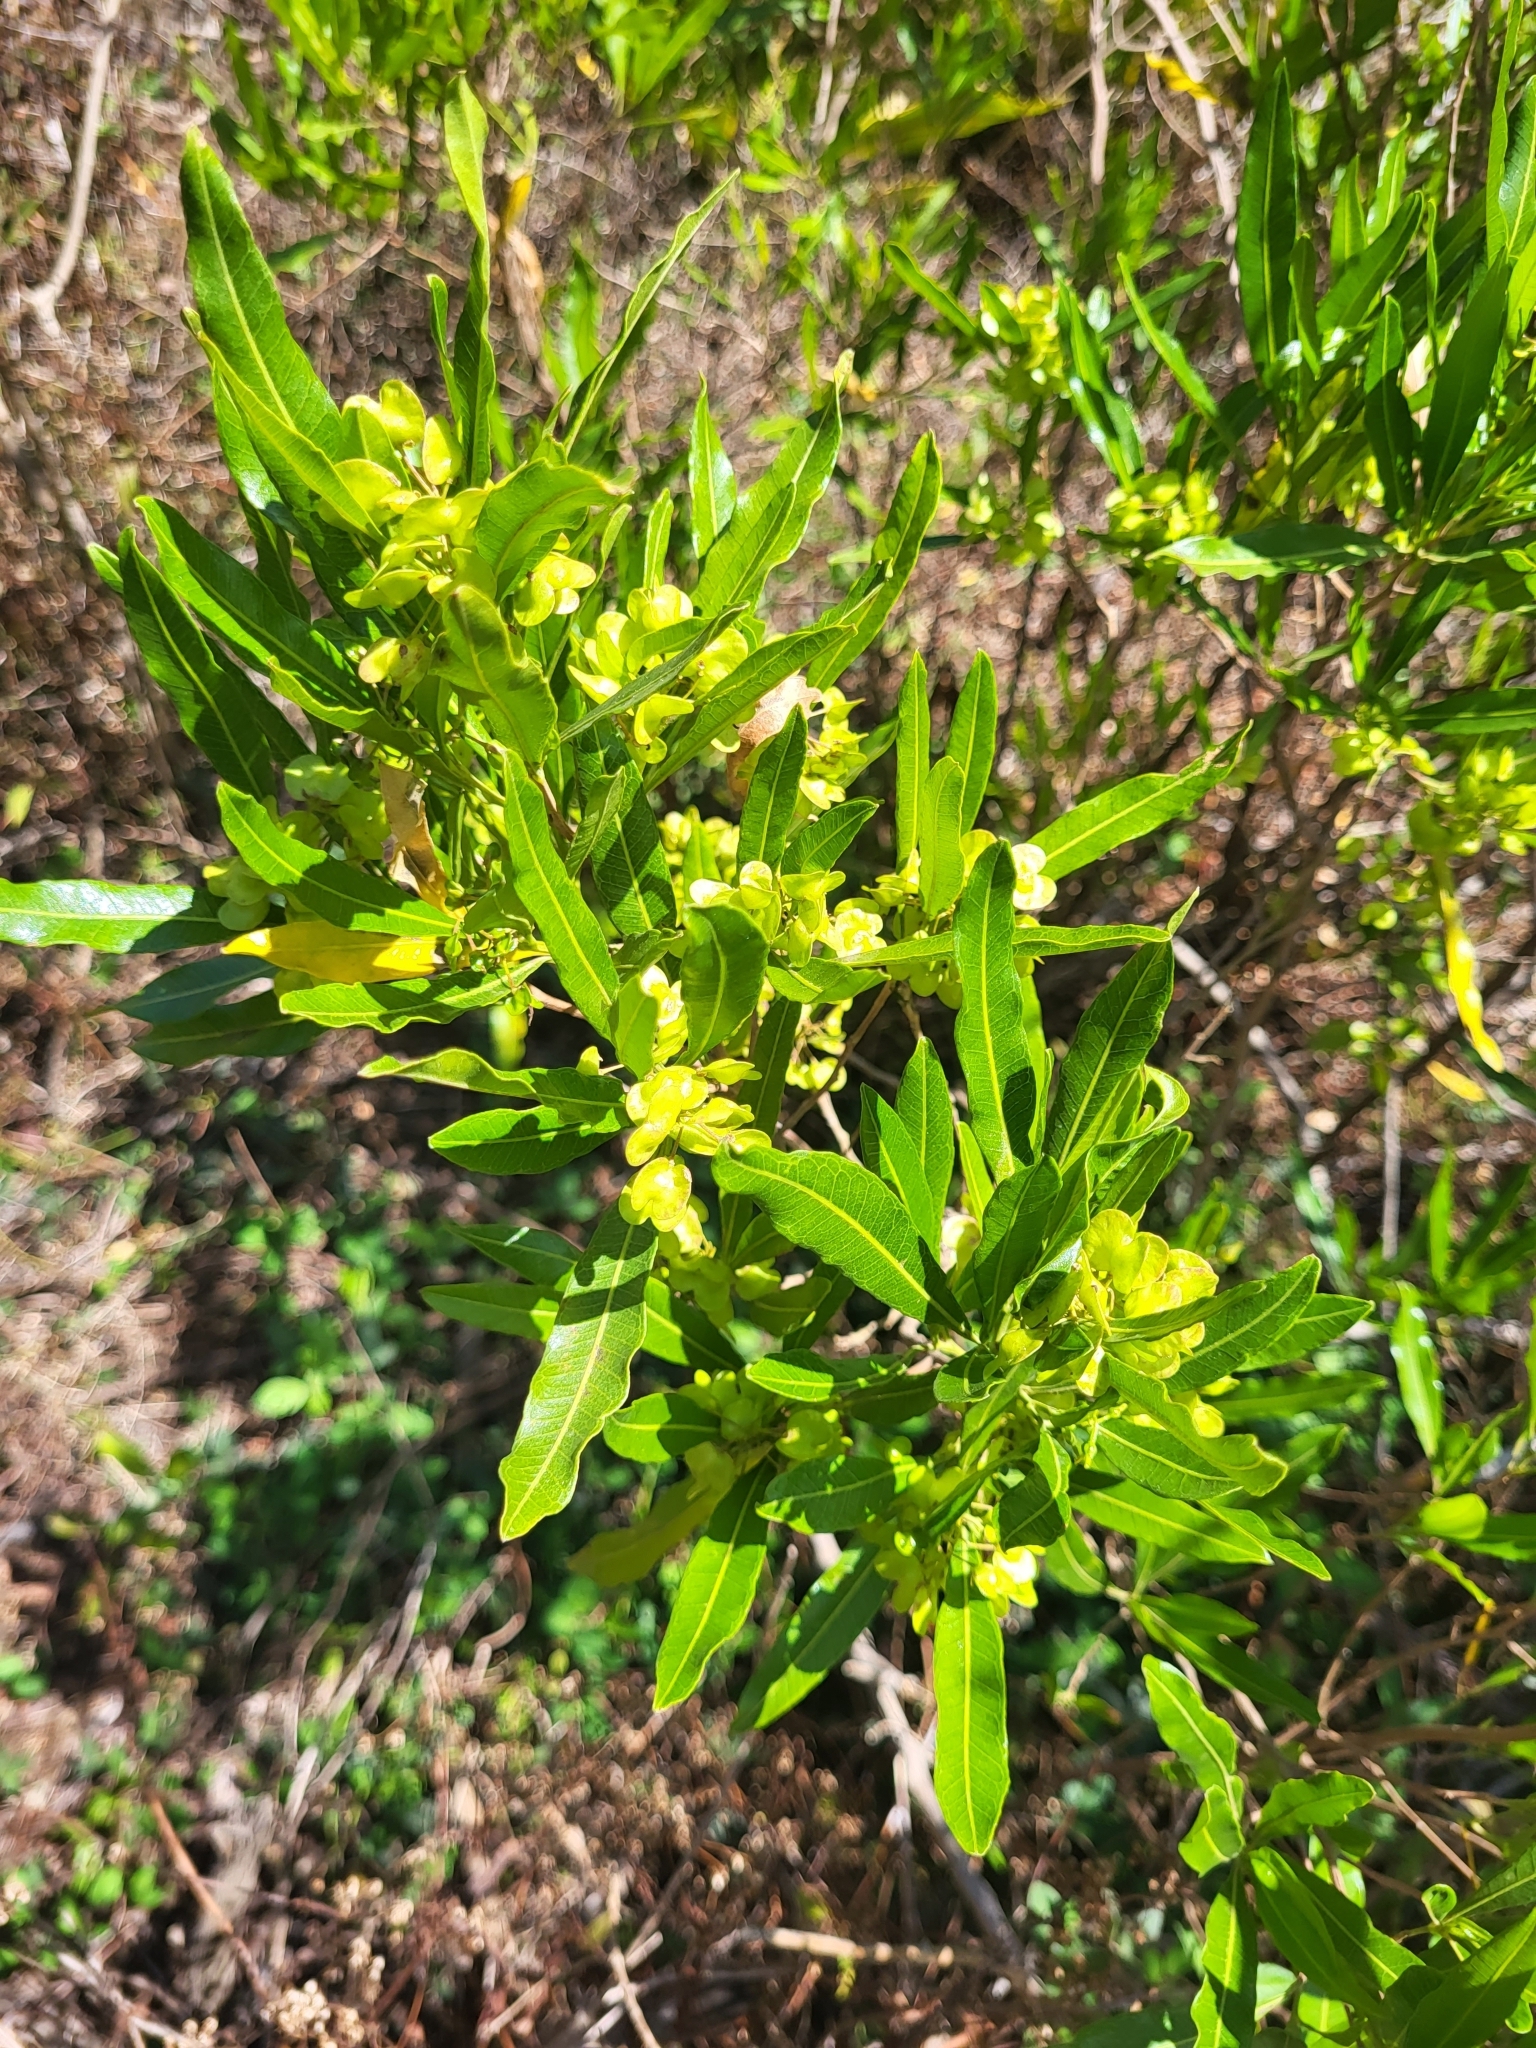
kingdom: Plantae
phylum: Tracheophyta
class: Magnoliopsida
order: Sapindales
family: Sapindaceae
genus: Dodonaea
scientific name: Dodonaea viscosa
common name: Hopbush
